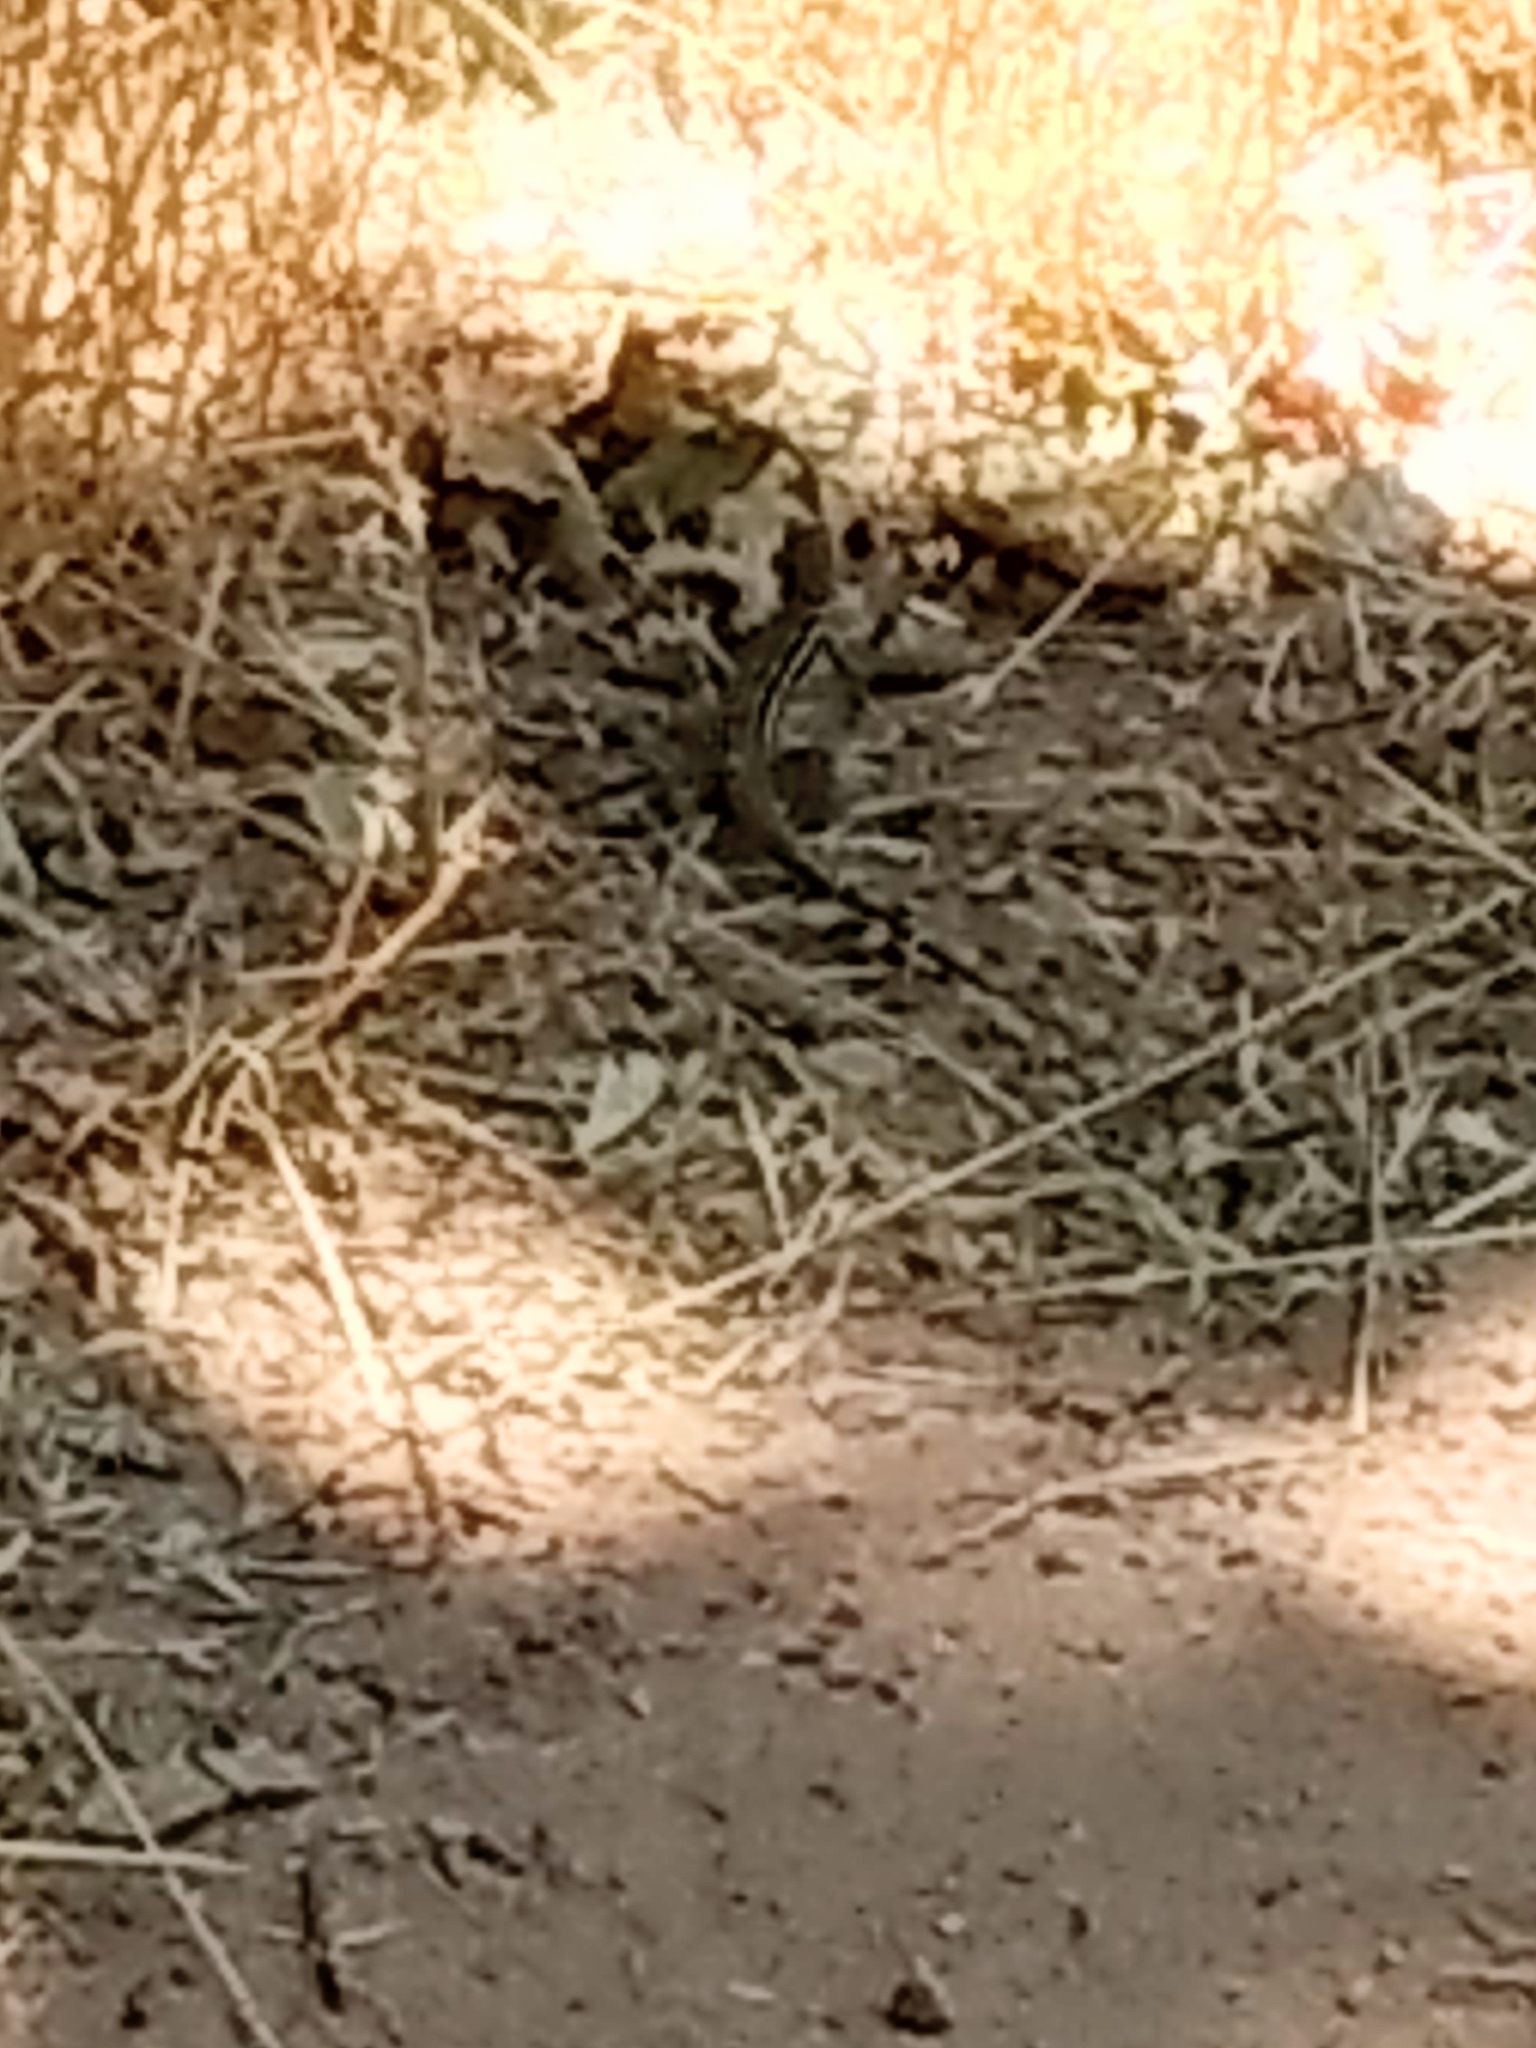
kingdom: Animalia
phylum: Chordata
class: Squamata
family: Teiidae
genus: Aspidoscelis
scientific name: Aspidoscelis velox
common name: Plateau striped whiptail
